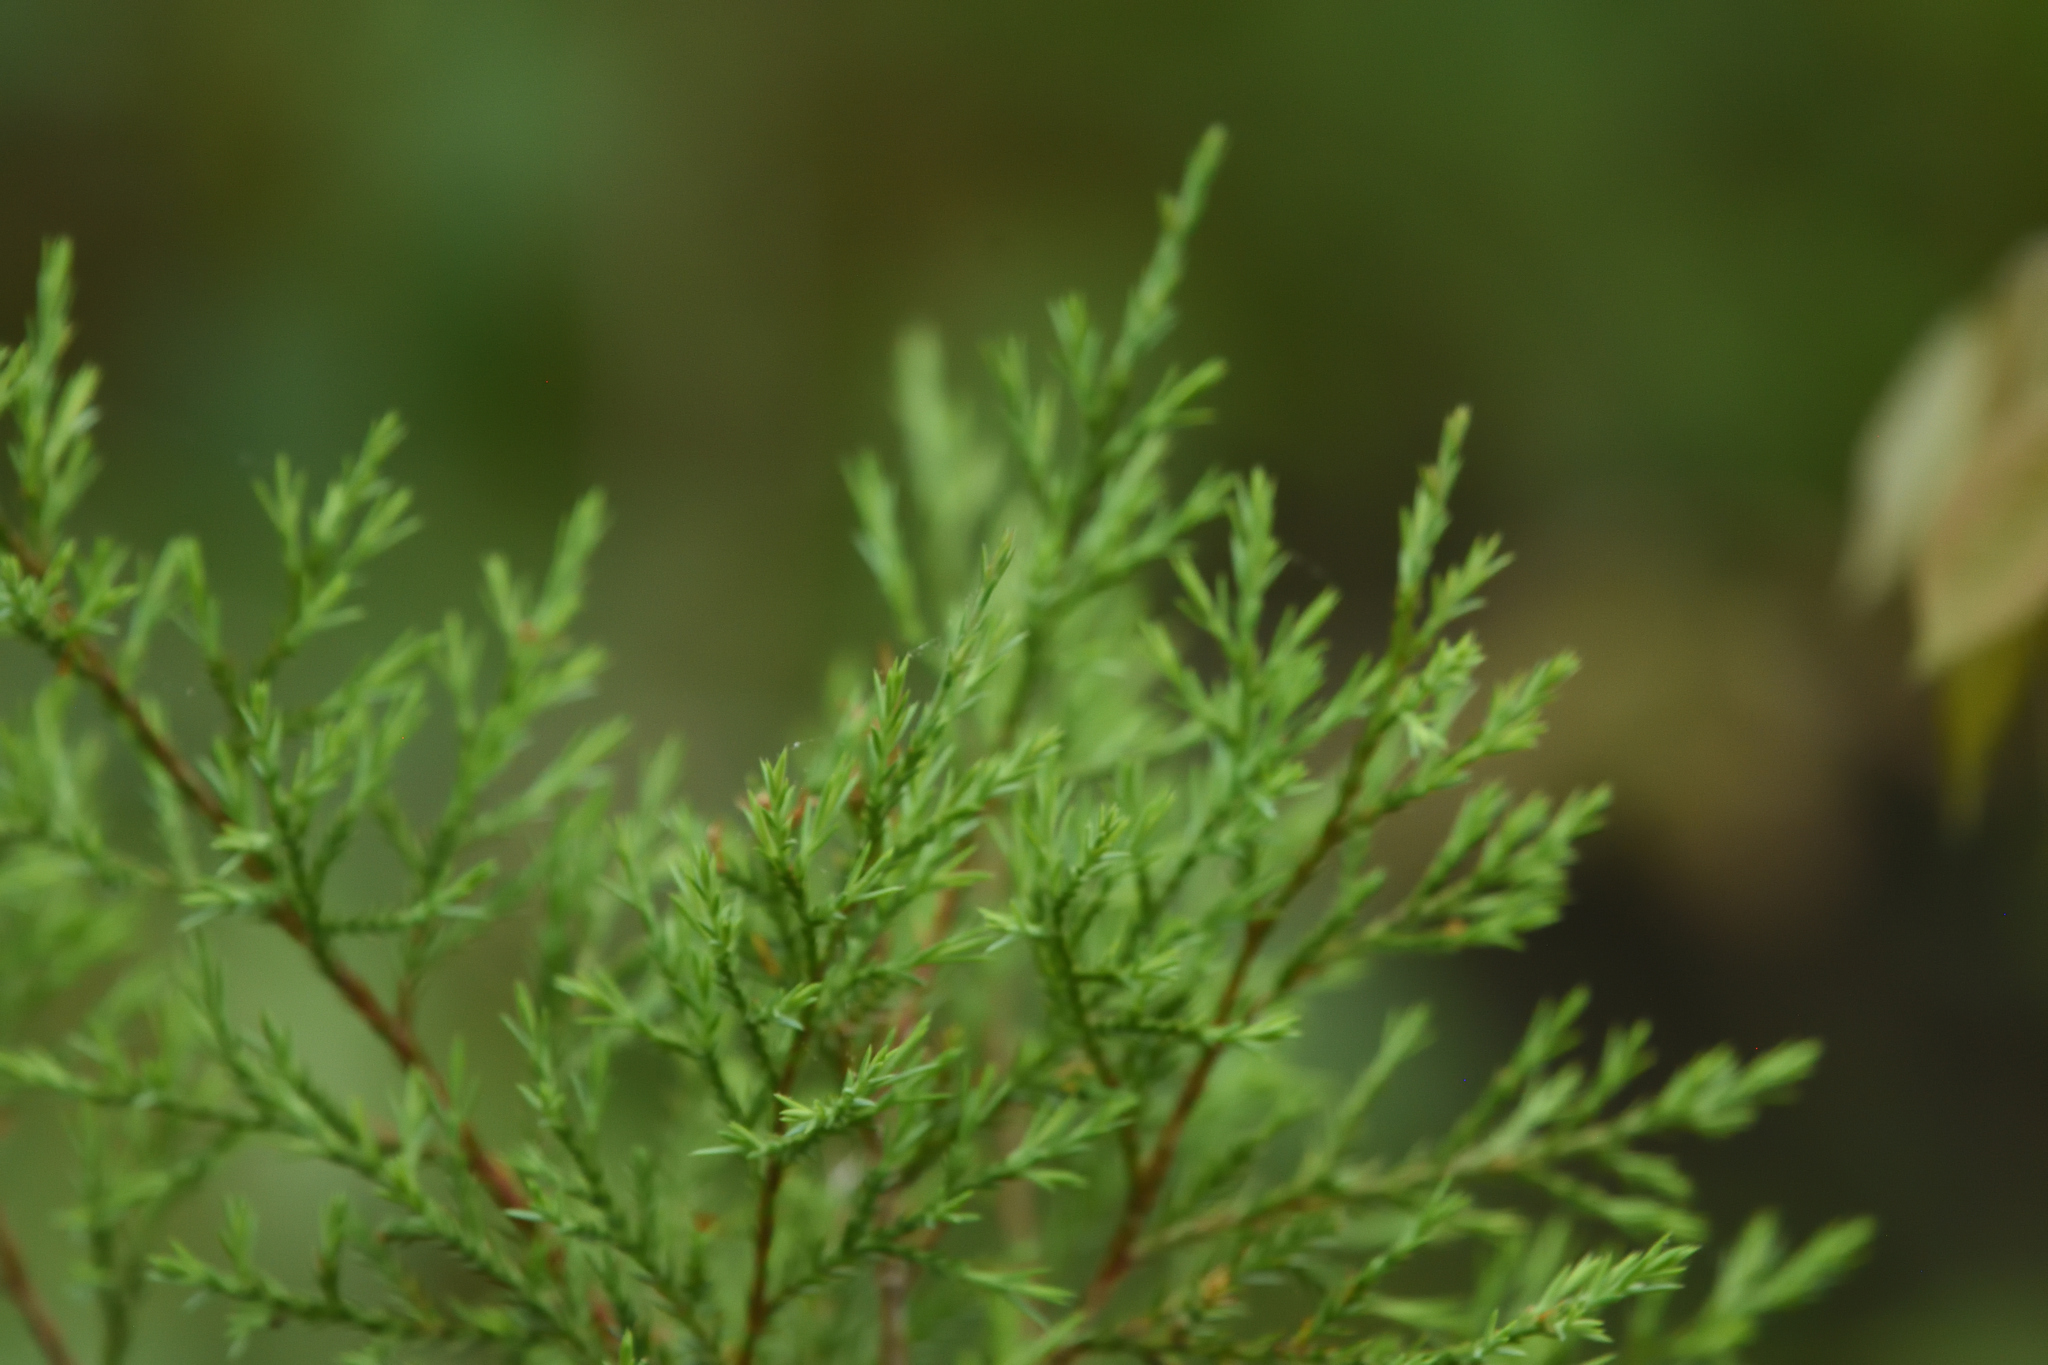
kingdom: Plantae
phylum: Tracheophyta
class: Pinopsida
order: Pinales
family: Cupressaceae
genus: Juniperus
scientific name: Juniperus virginiana
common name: Red juniper
